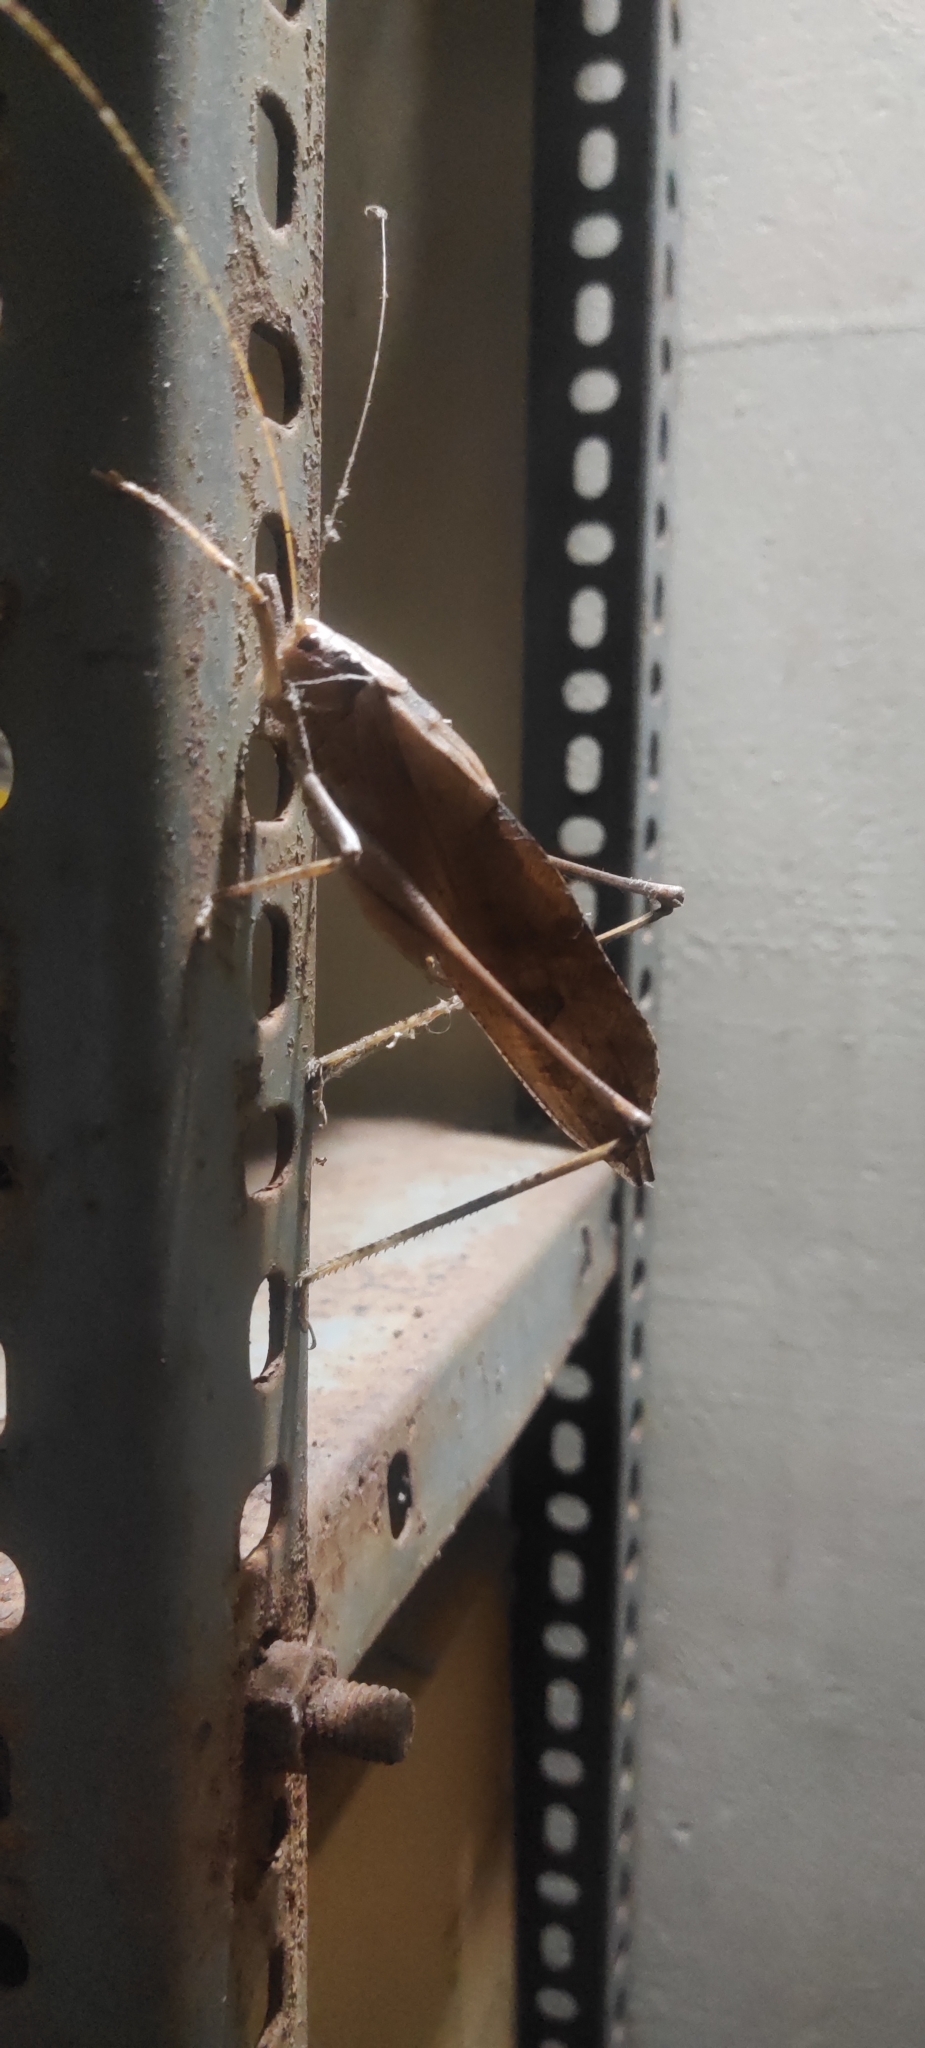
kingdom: Animalia
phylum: Arthropoda
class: Insecta
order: Orthoptera
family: Tettigoniidae
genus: Mecopoda
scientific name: Mecopoda elongata
